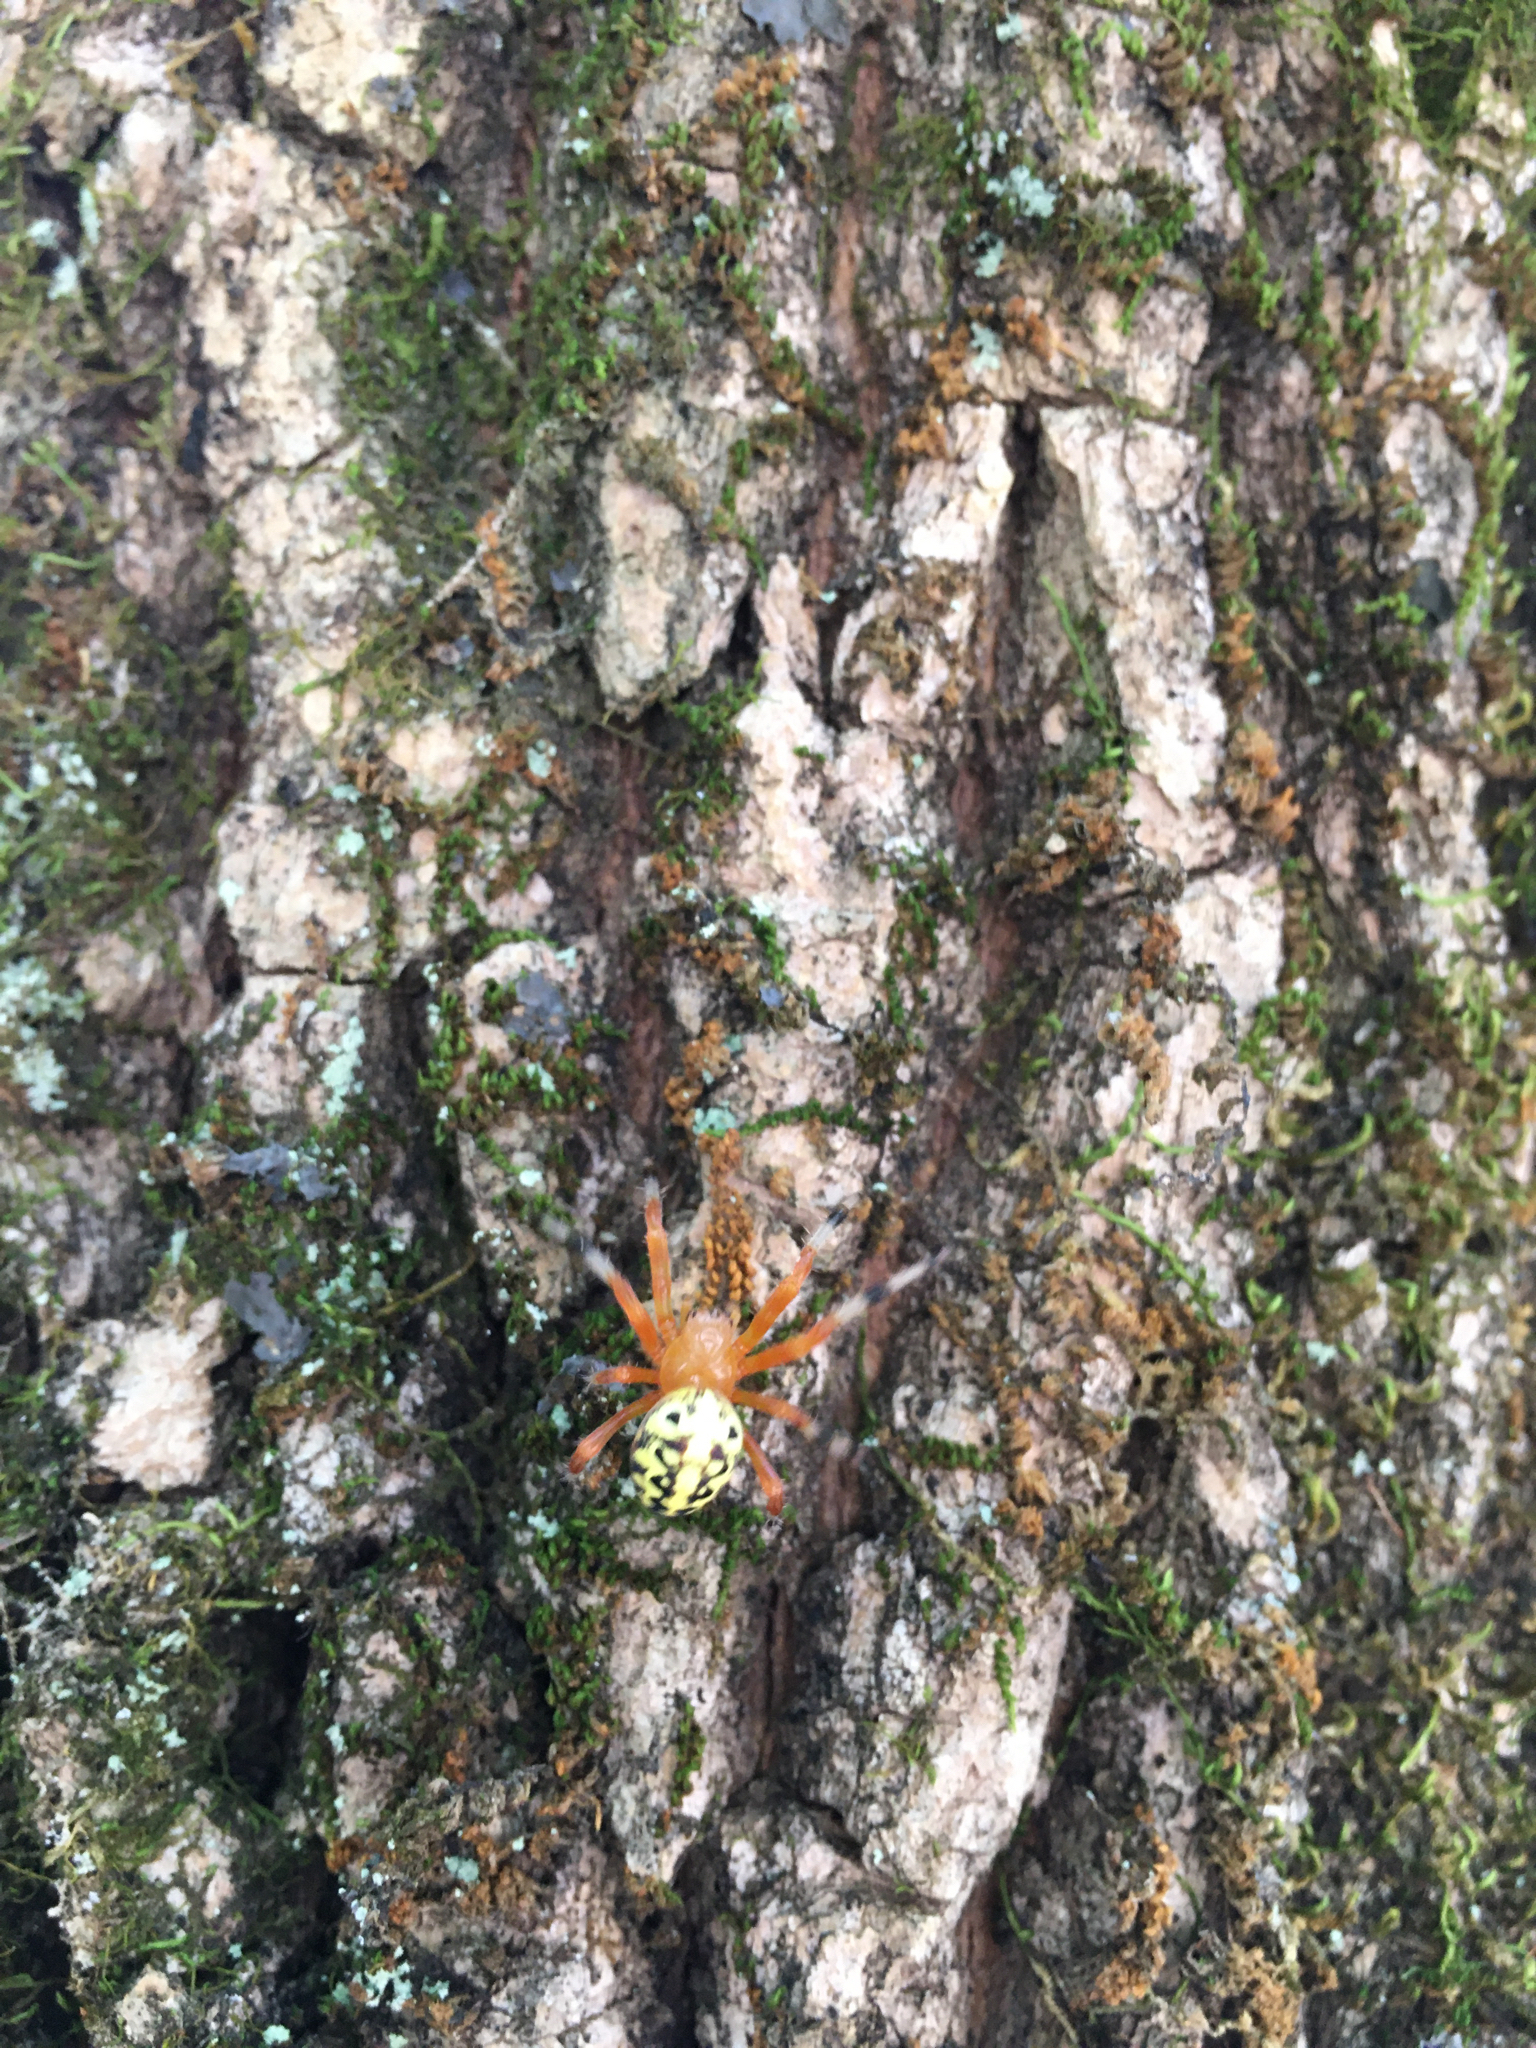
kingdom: Animalia
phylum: Arthropoda
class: Arachnida
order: Araneae
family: Araneidae
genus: Araneus
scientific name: Araneus marmoreus
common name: Marbled orbweaver
